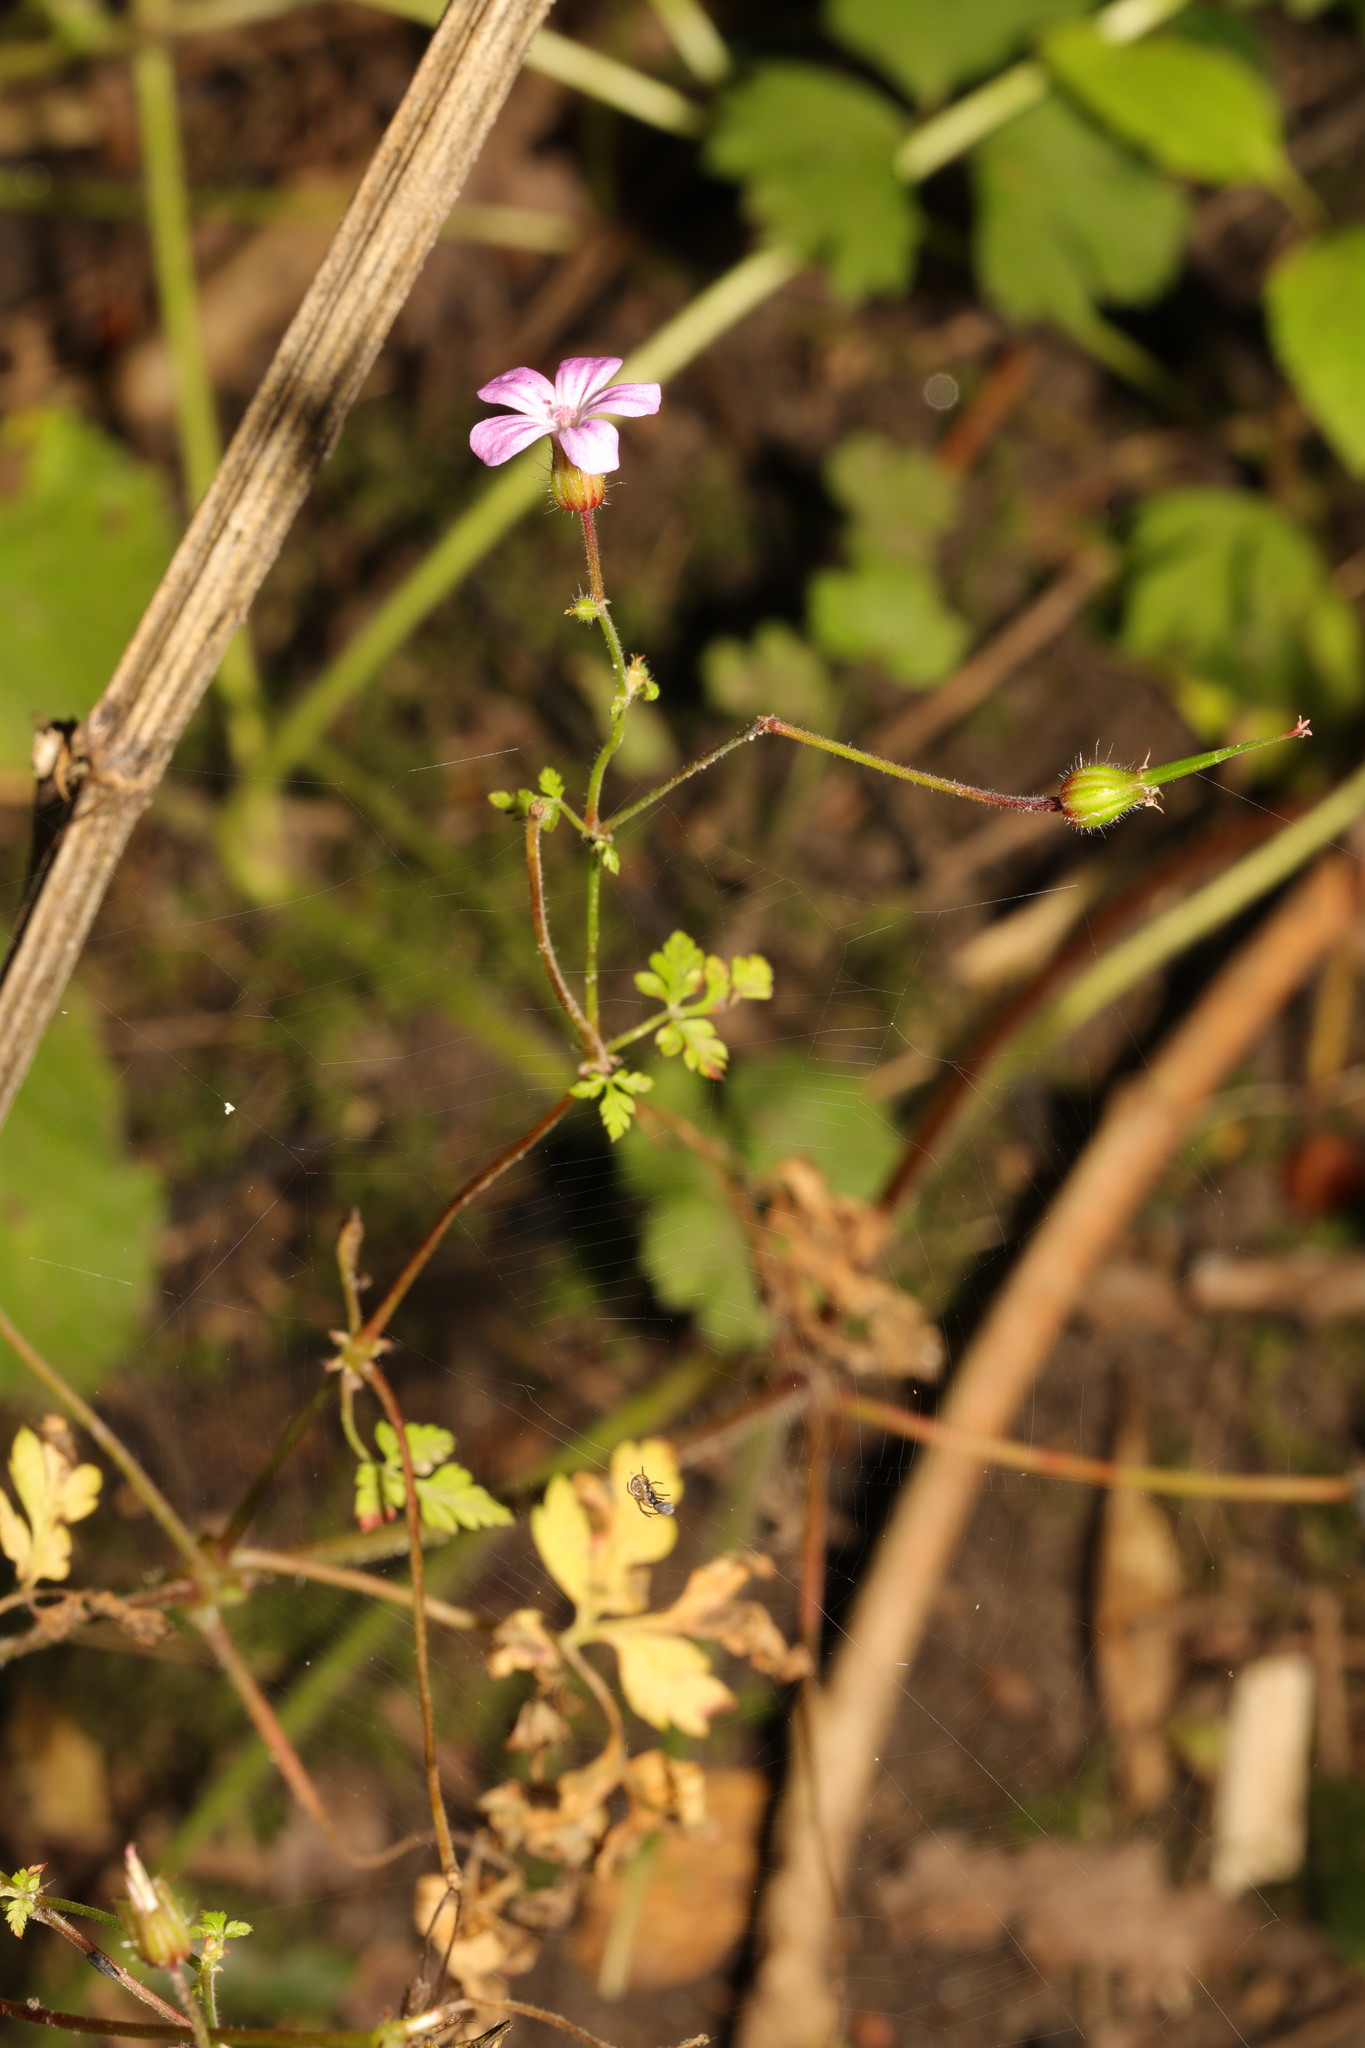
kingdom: Plantae
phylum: Tracheophyta
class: Magnoliopsida
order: Geraniales
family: Geraniaceae
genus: Geranium
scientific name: Geranium robertianum
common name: Herb-robert
